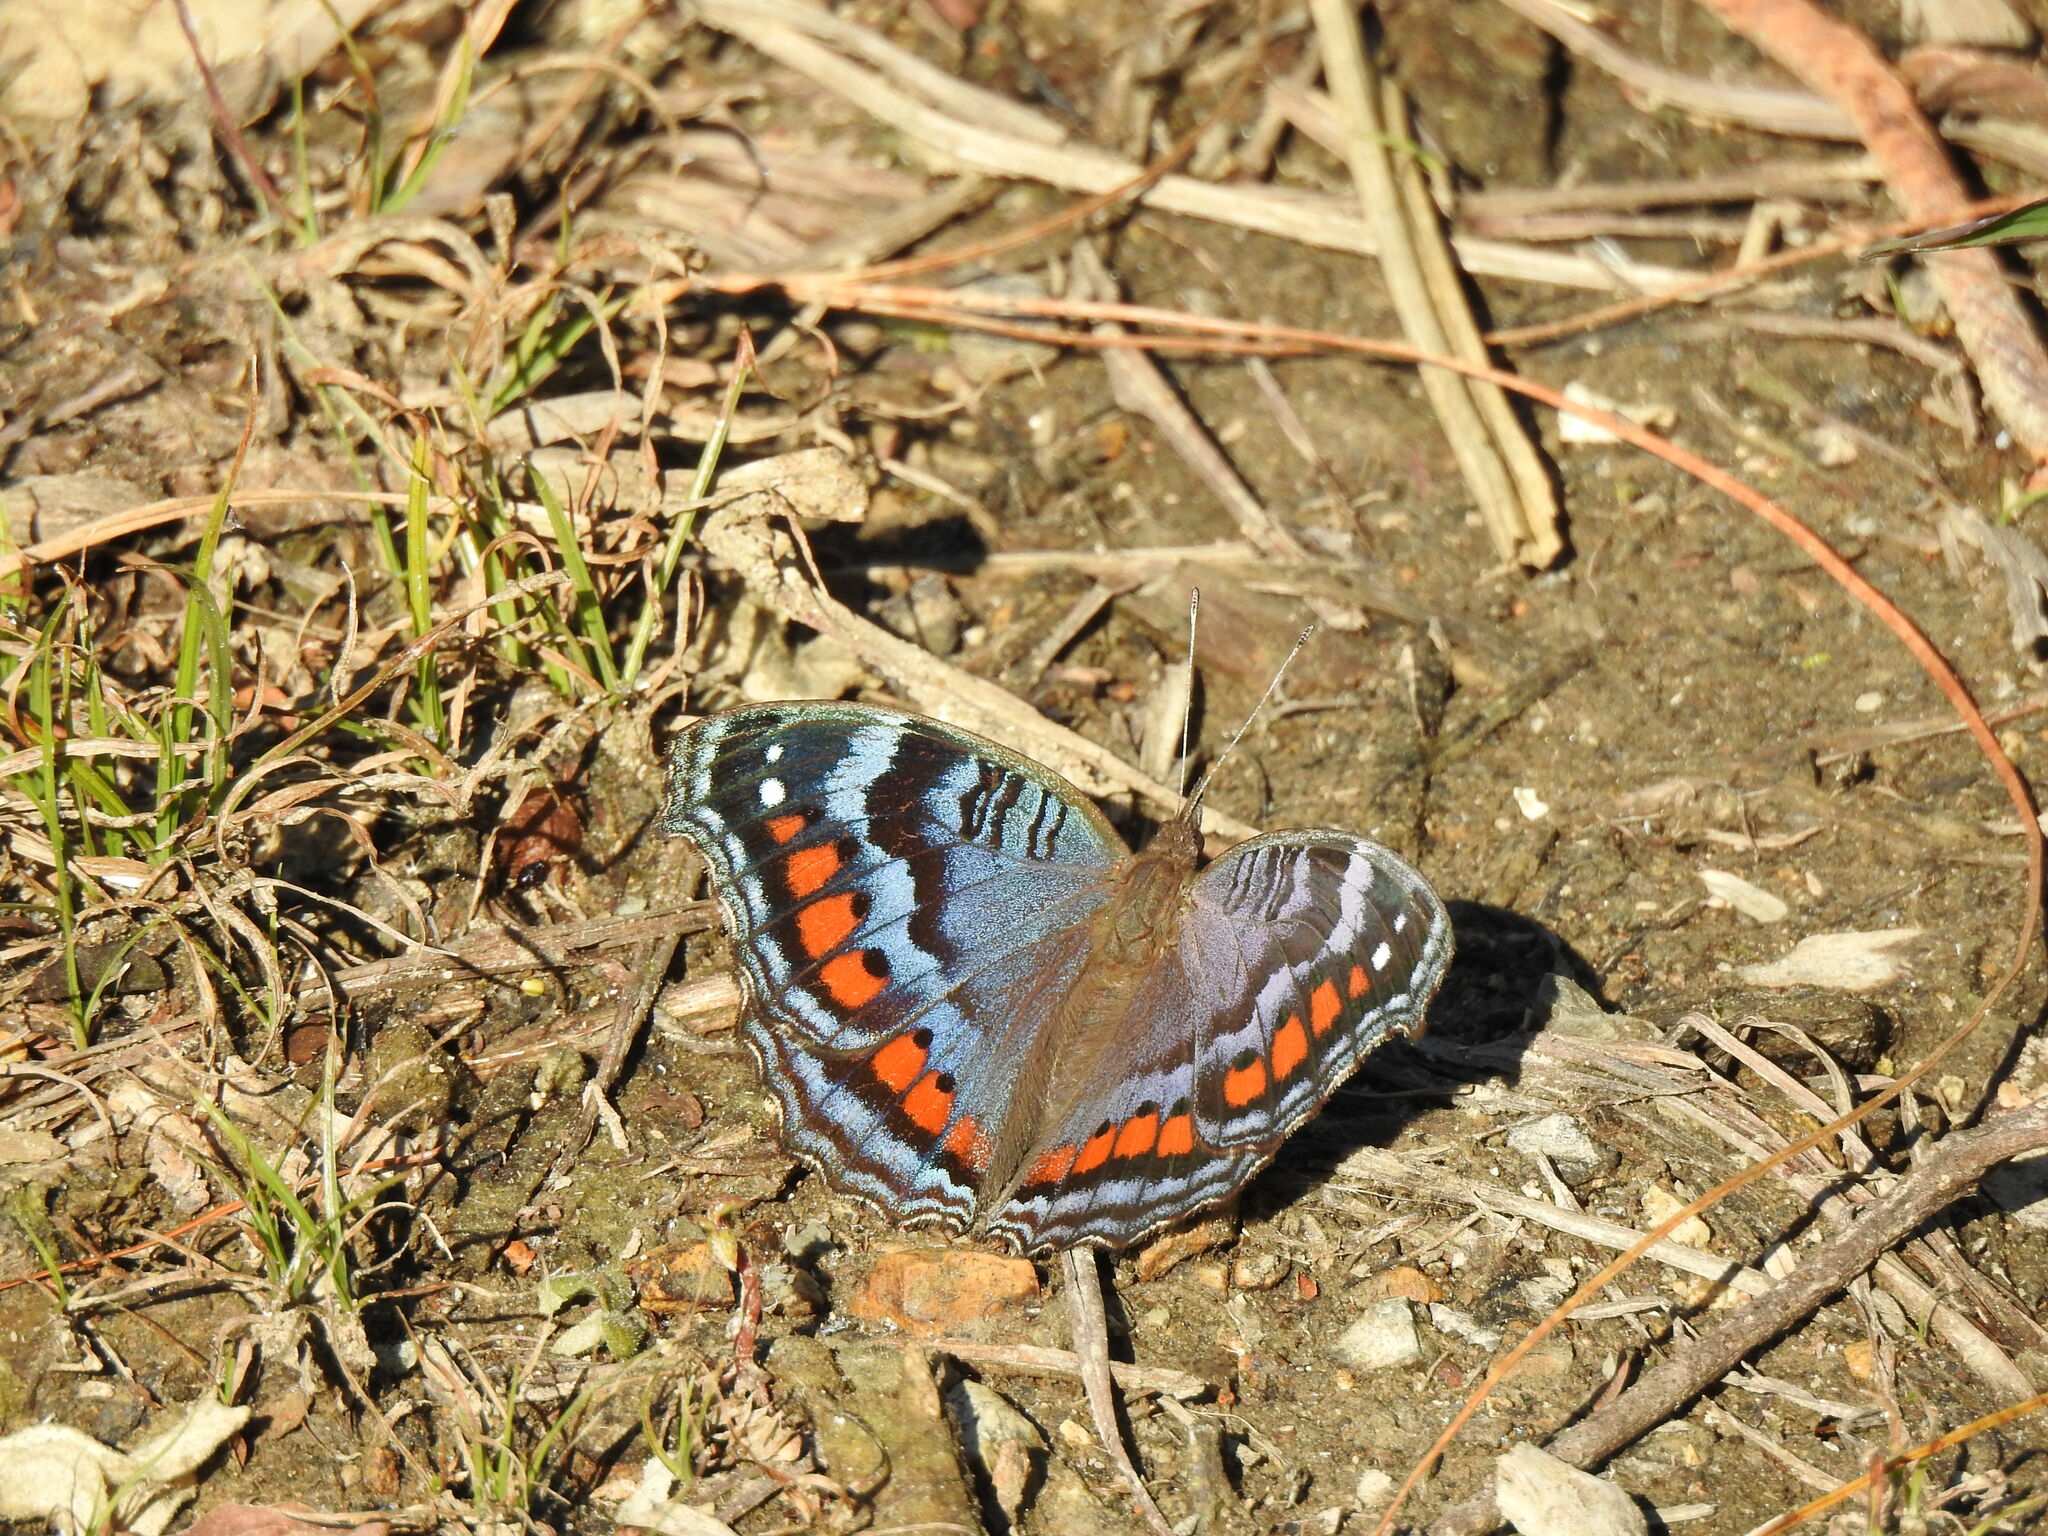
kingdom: Animalia
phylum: Arthropoda
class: Insecta
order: Lepidoptera
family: Nymphalidae
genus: Precis
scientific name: Precis octavia
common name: Gaudy commodore
